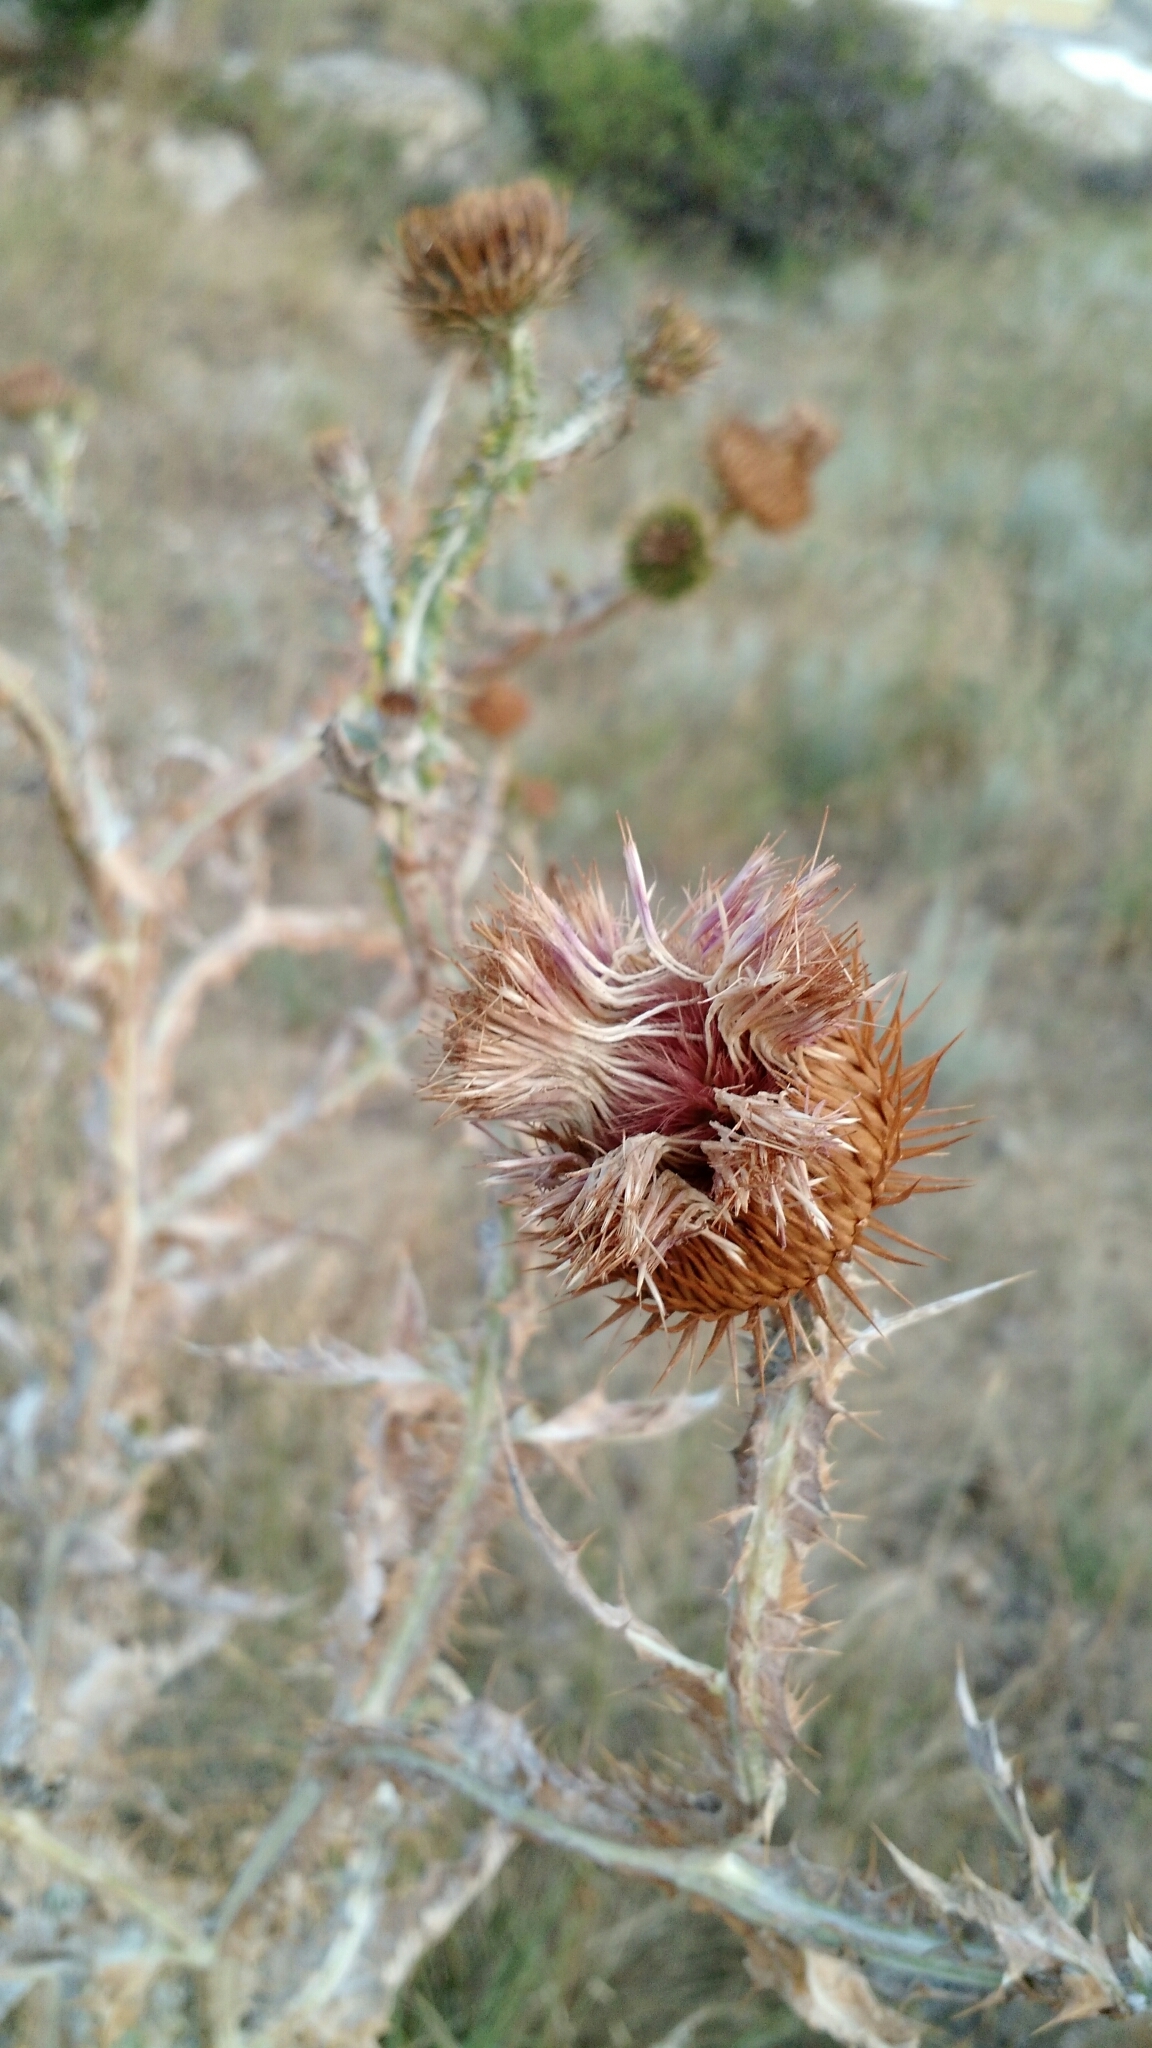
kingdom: Plantae
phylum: Tracheophyta
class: Magnoliopsida
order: Asterales
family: Asteraceae
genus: Onopordum
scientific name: Onopordum acanthium
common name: Scotch thistle
